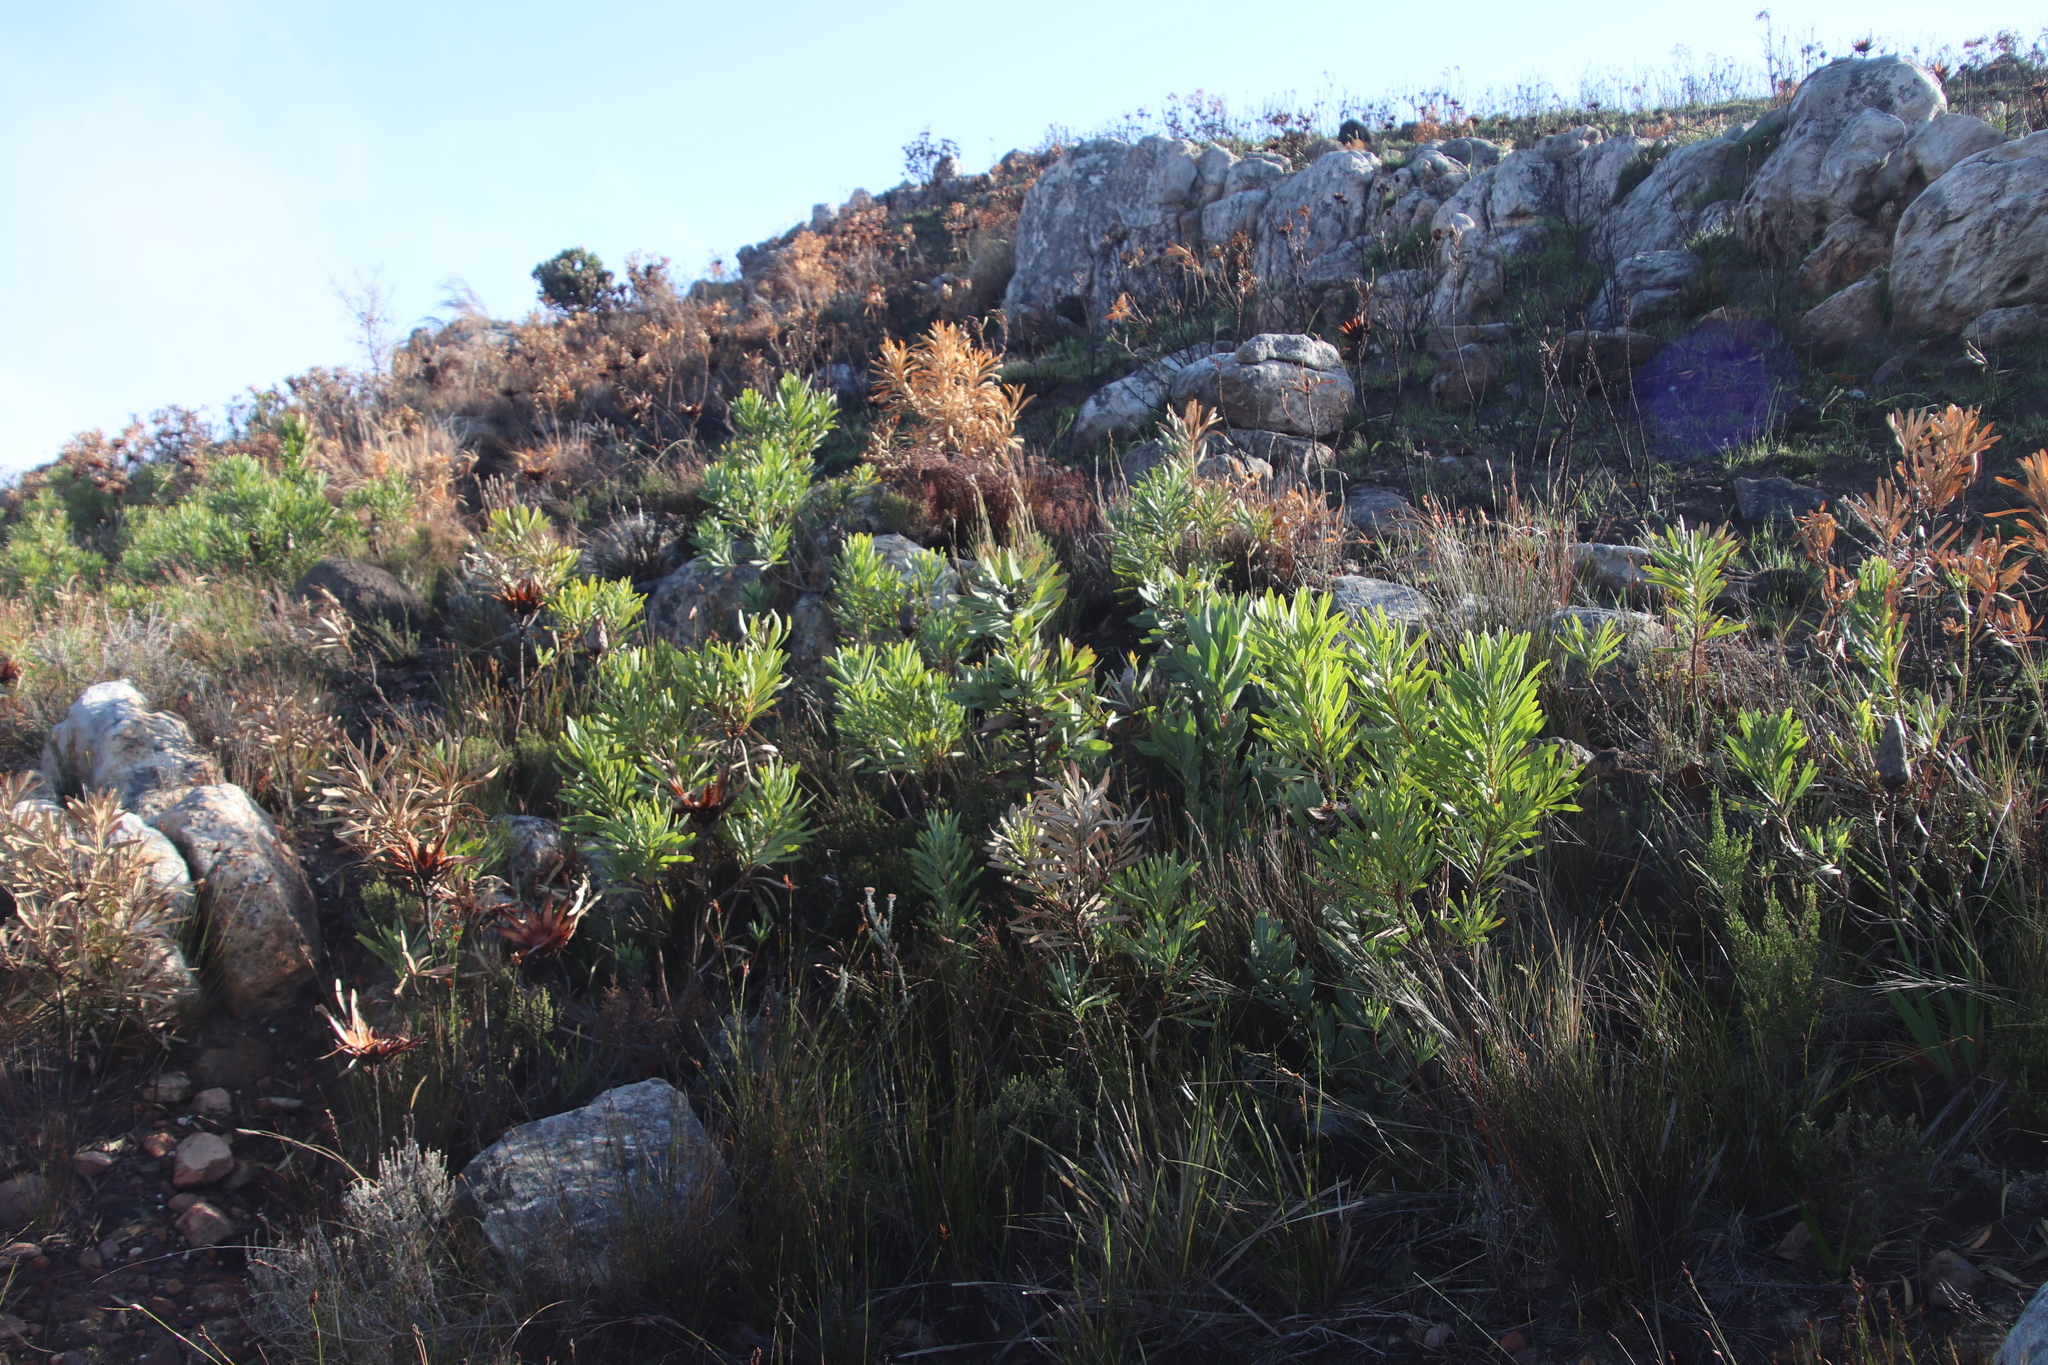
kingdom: Plantae
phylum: Tracheophyta
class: Magnoliopsida
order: Proteales
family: Proteaceae
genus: Protea
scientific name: Protea repens
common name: Sugarbush
